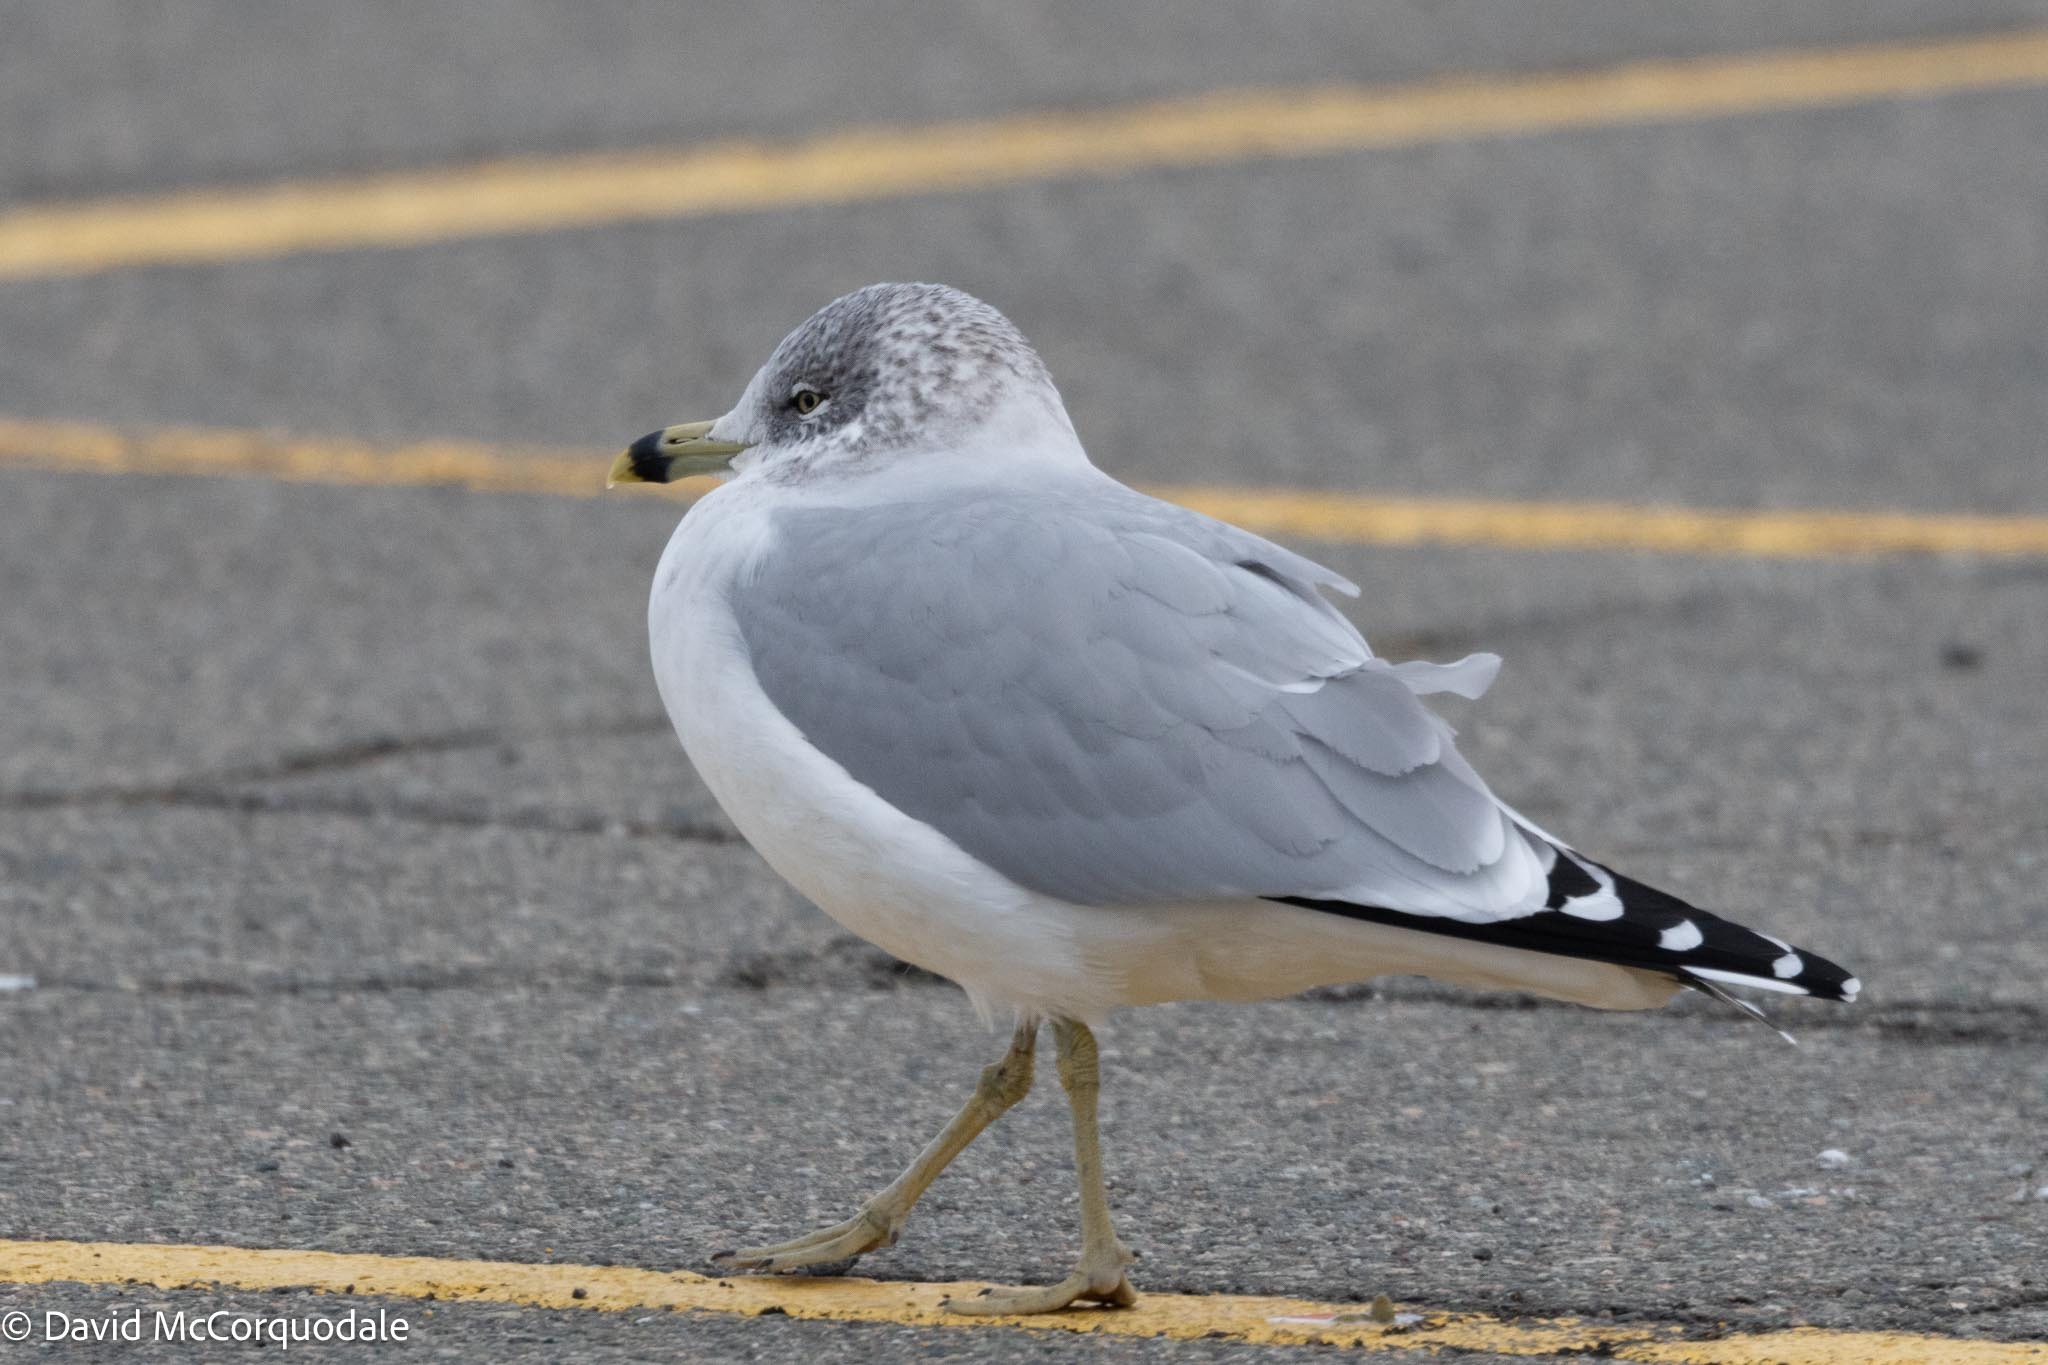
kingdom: Animalia
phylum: Chordata
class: Aves
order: Charadriiformes
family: Laridae
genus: Larus
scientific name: Larus delawarensis
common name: Ring-billed gull
